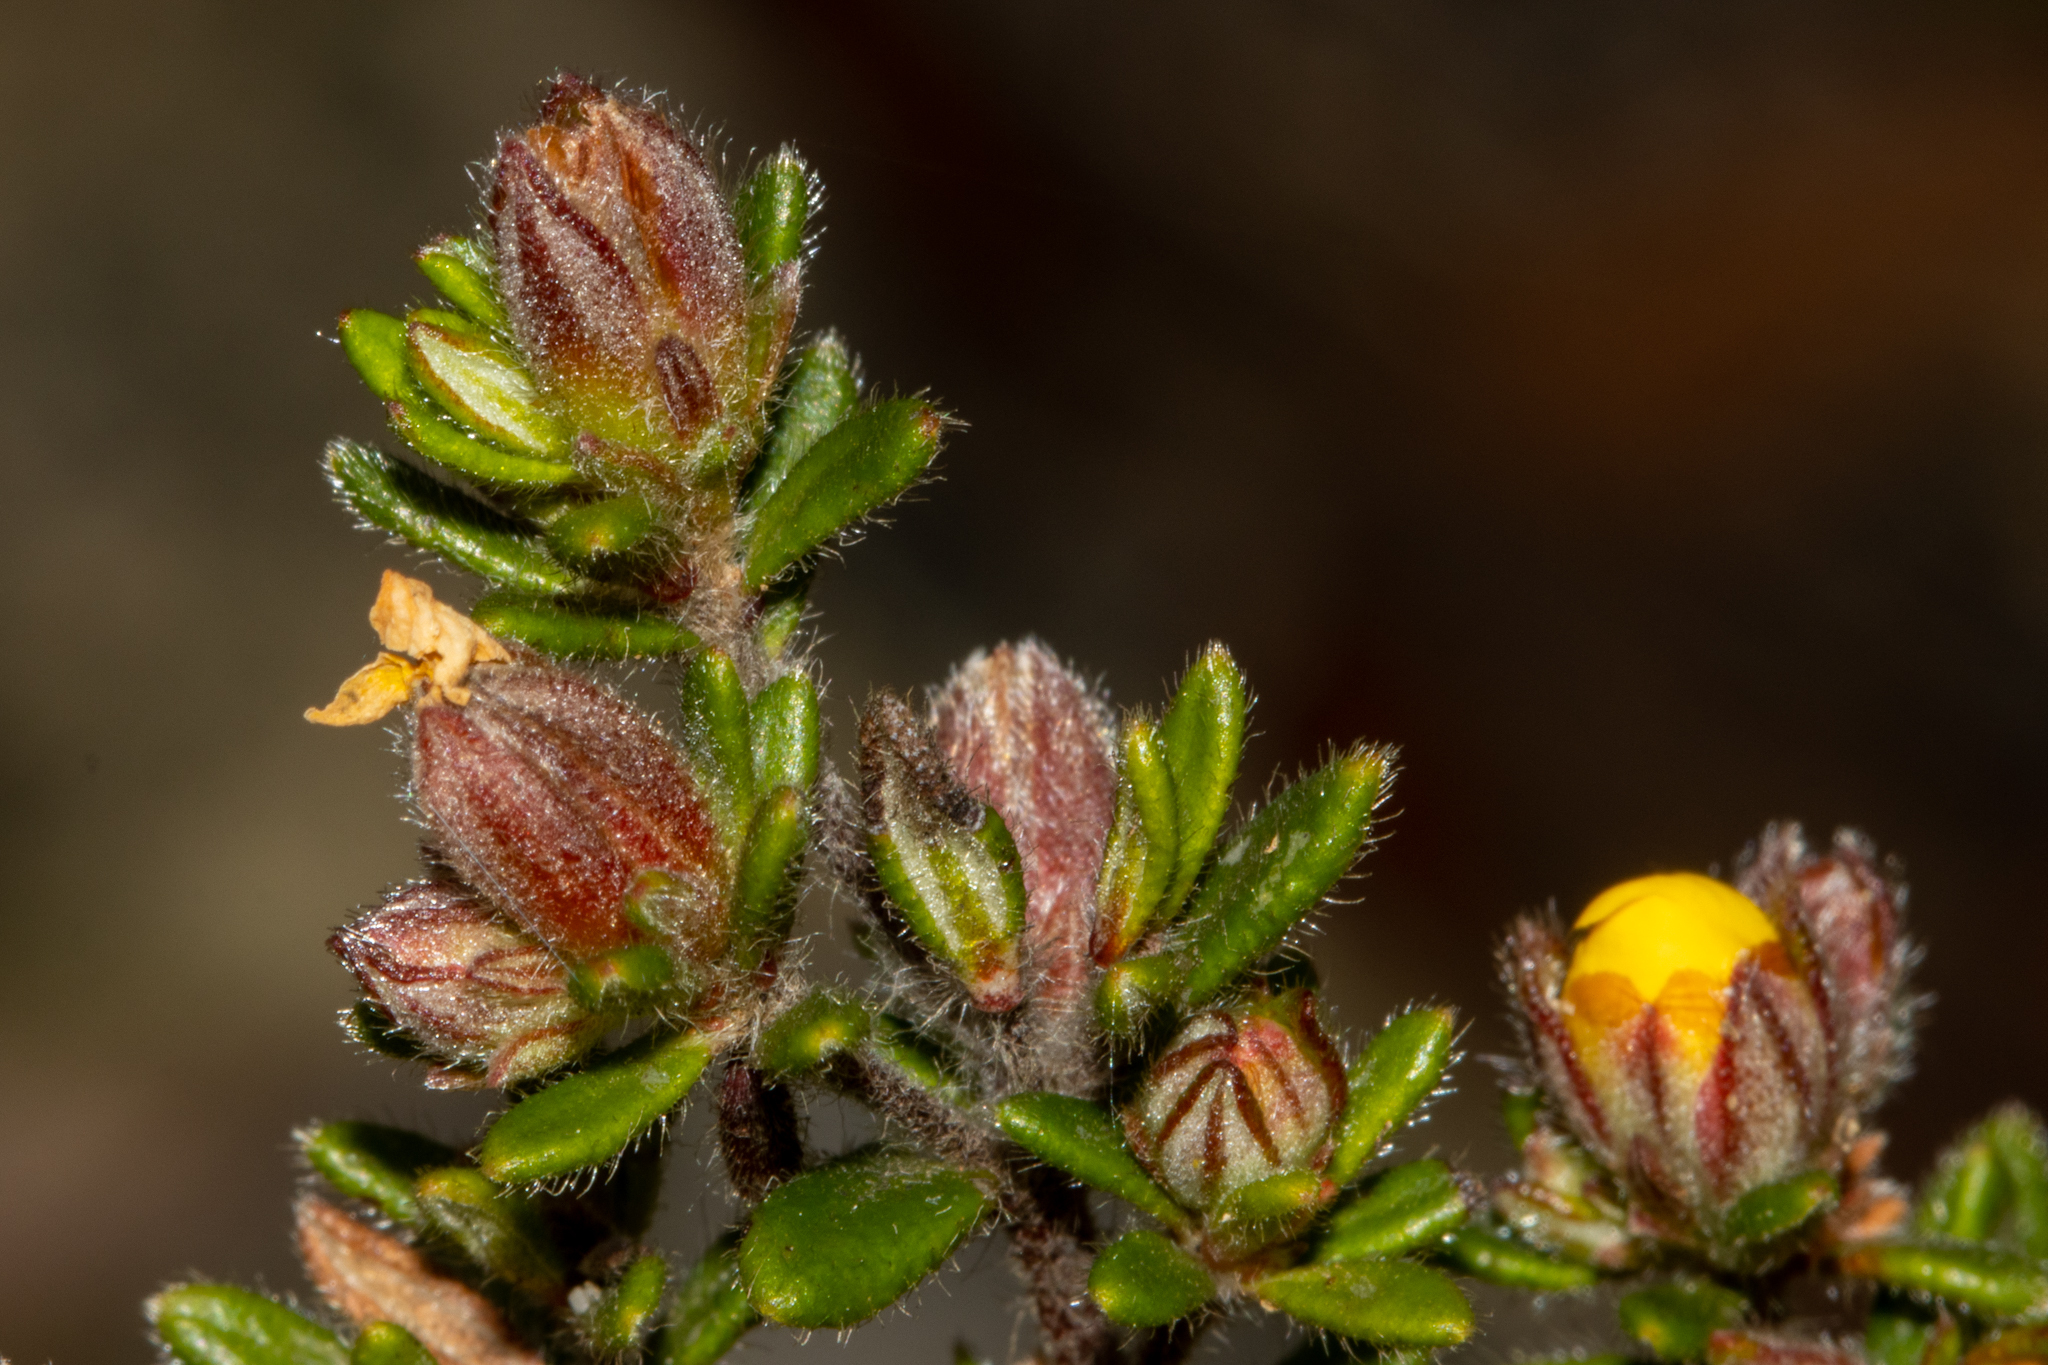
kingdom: Plantae
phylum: Tracheophyta
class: Magnoliopsida
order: Dilleniales
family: Dilleniaceae
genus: Hibbertia
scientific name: Hibbertia sericea
